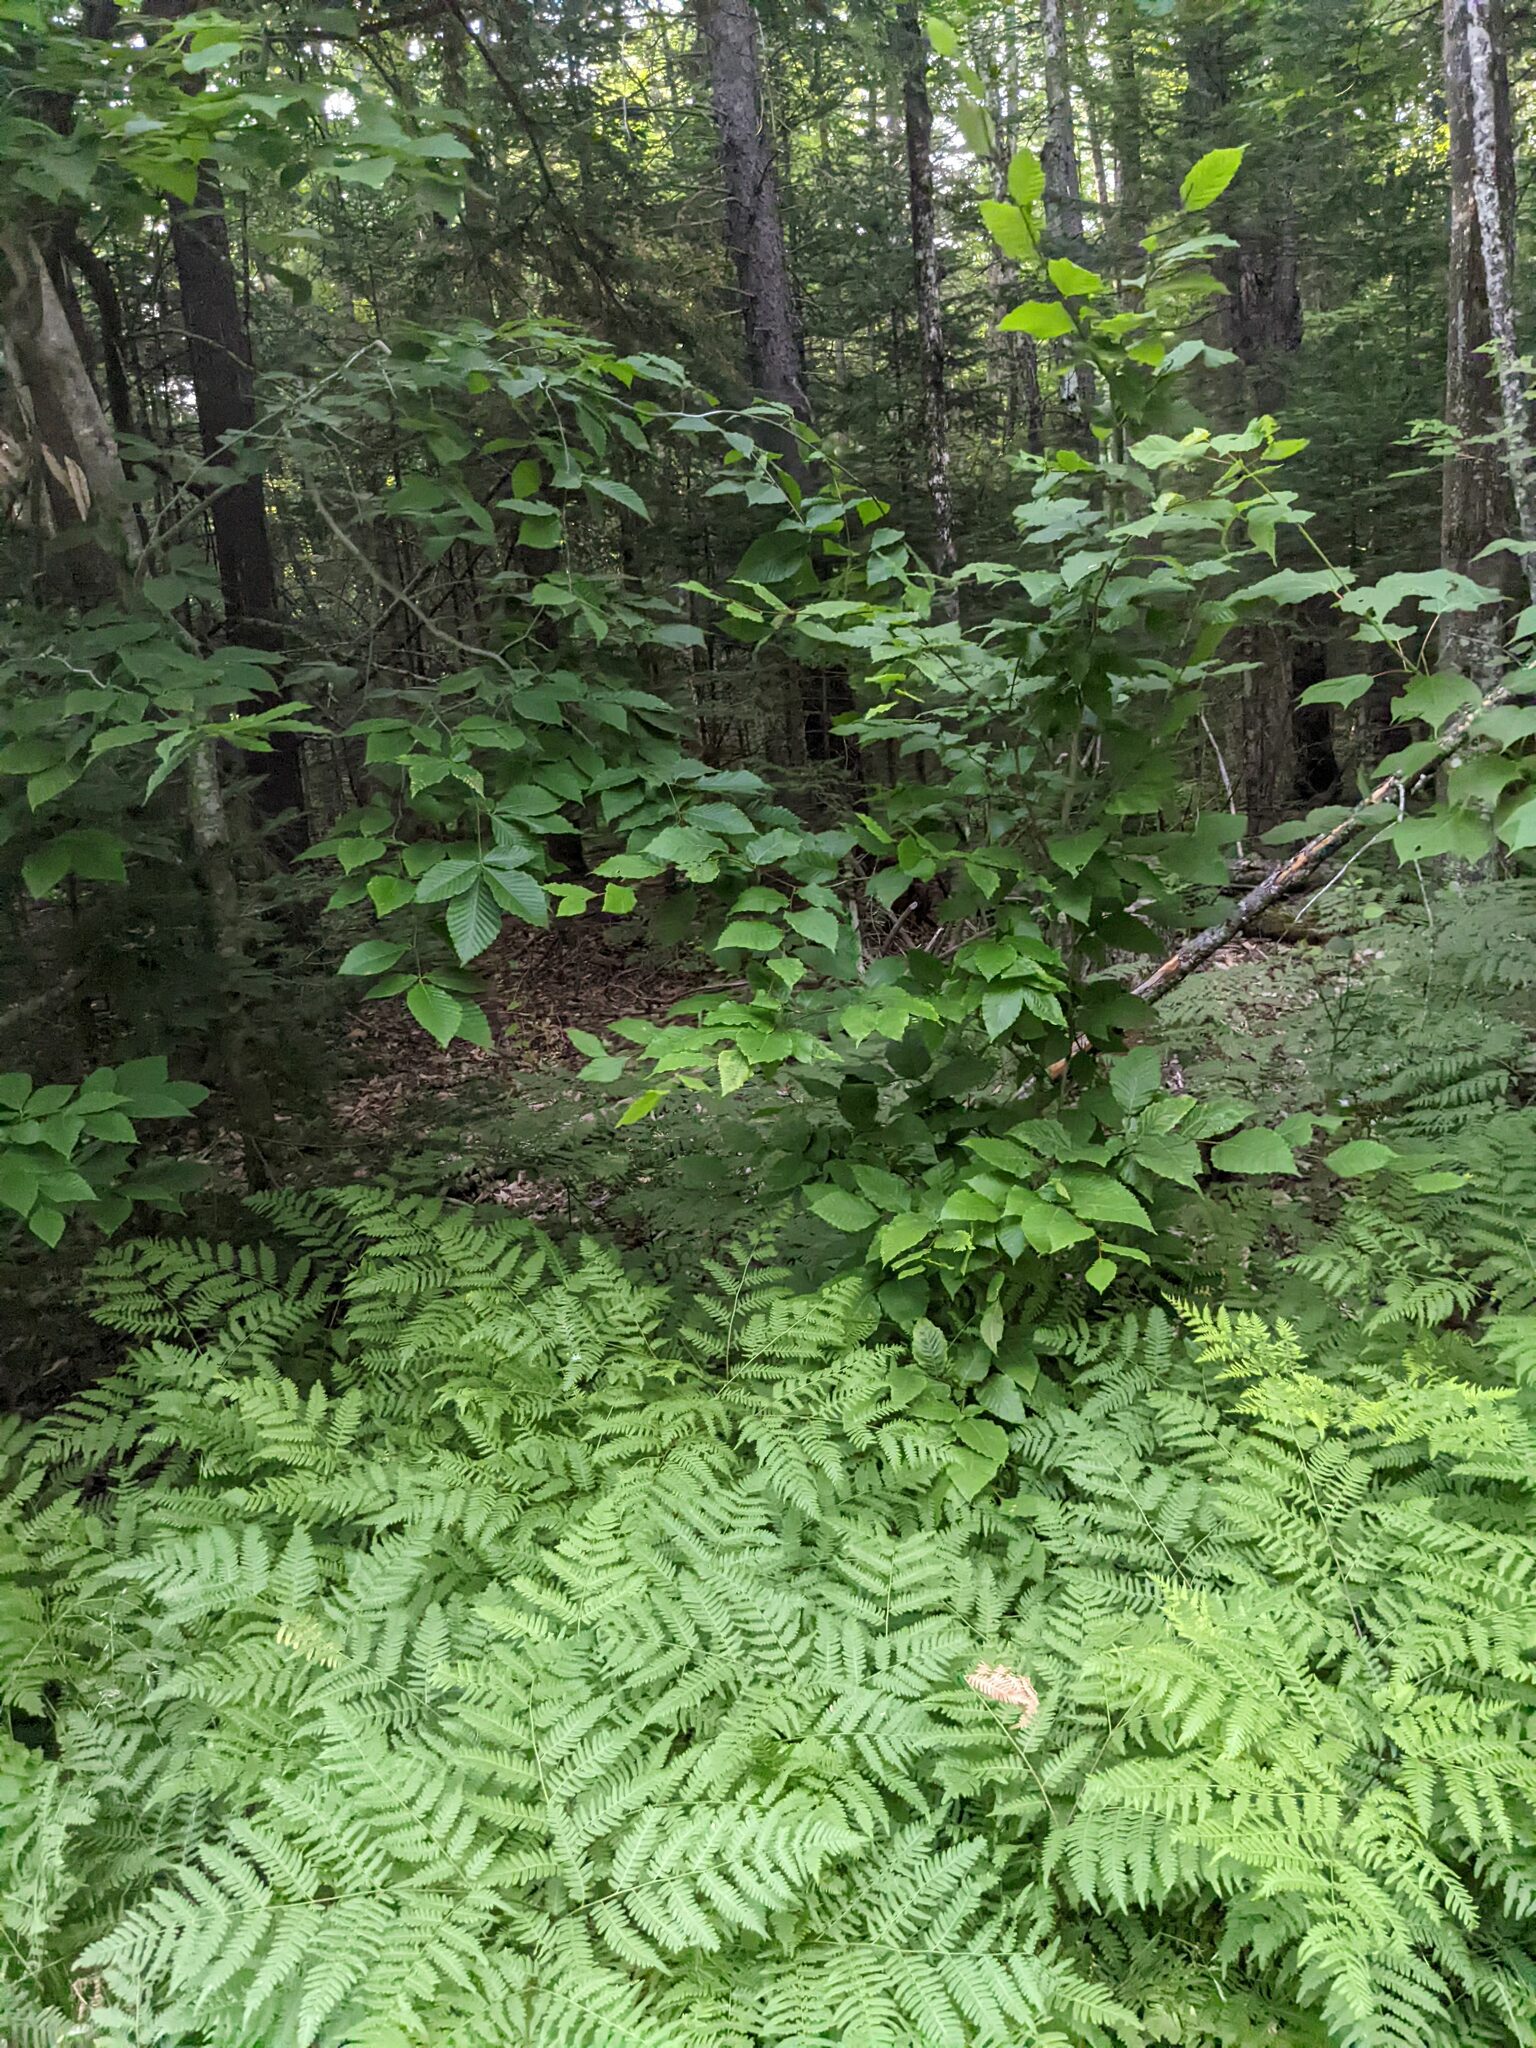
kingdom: Plantae
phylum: Tracheophyta
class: Magnoliopsida
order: Fagales
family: Fagaceae
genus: Fagus
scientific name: Fagus grandifolia
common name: American beech
